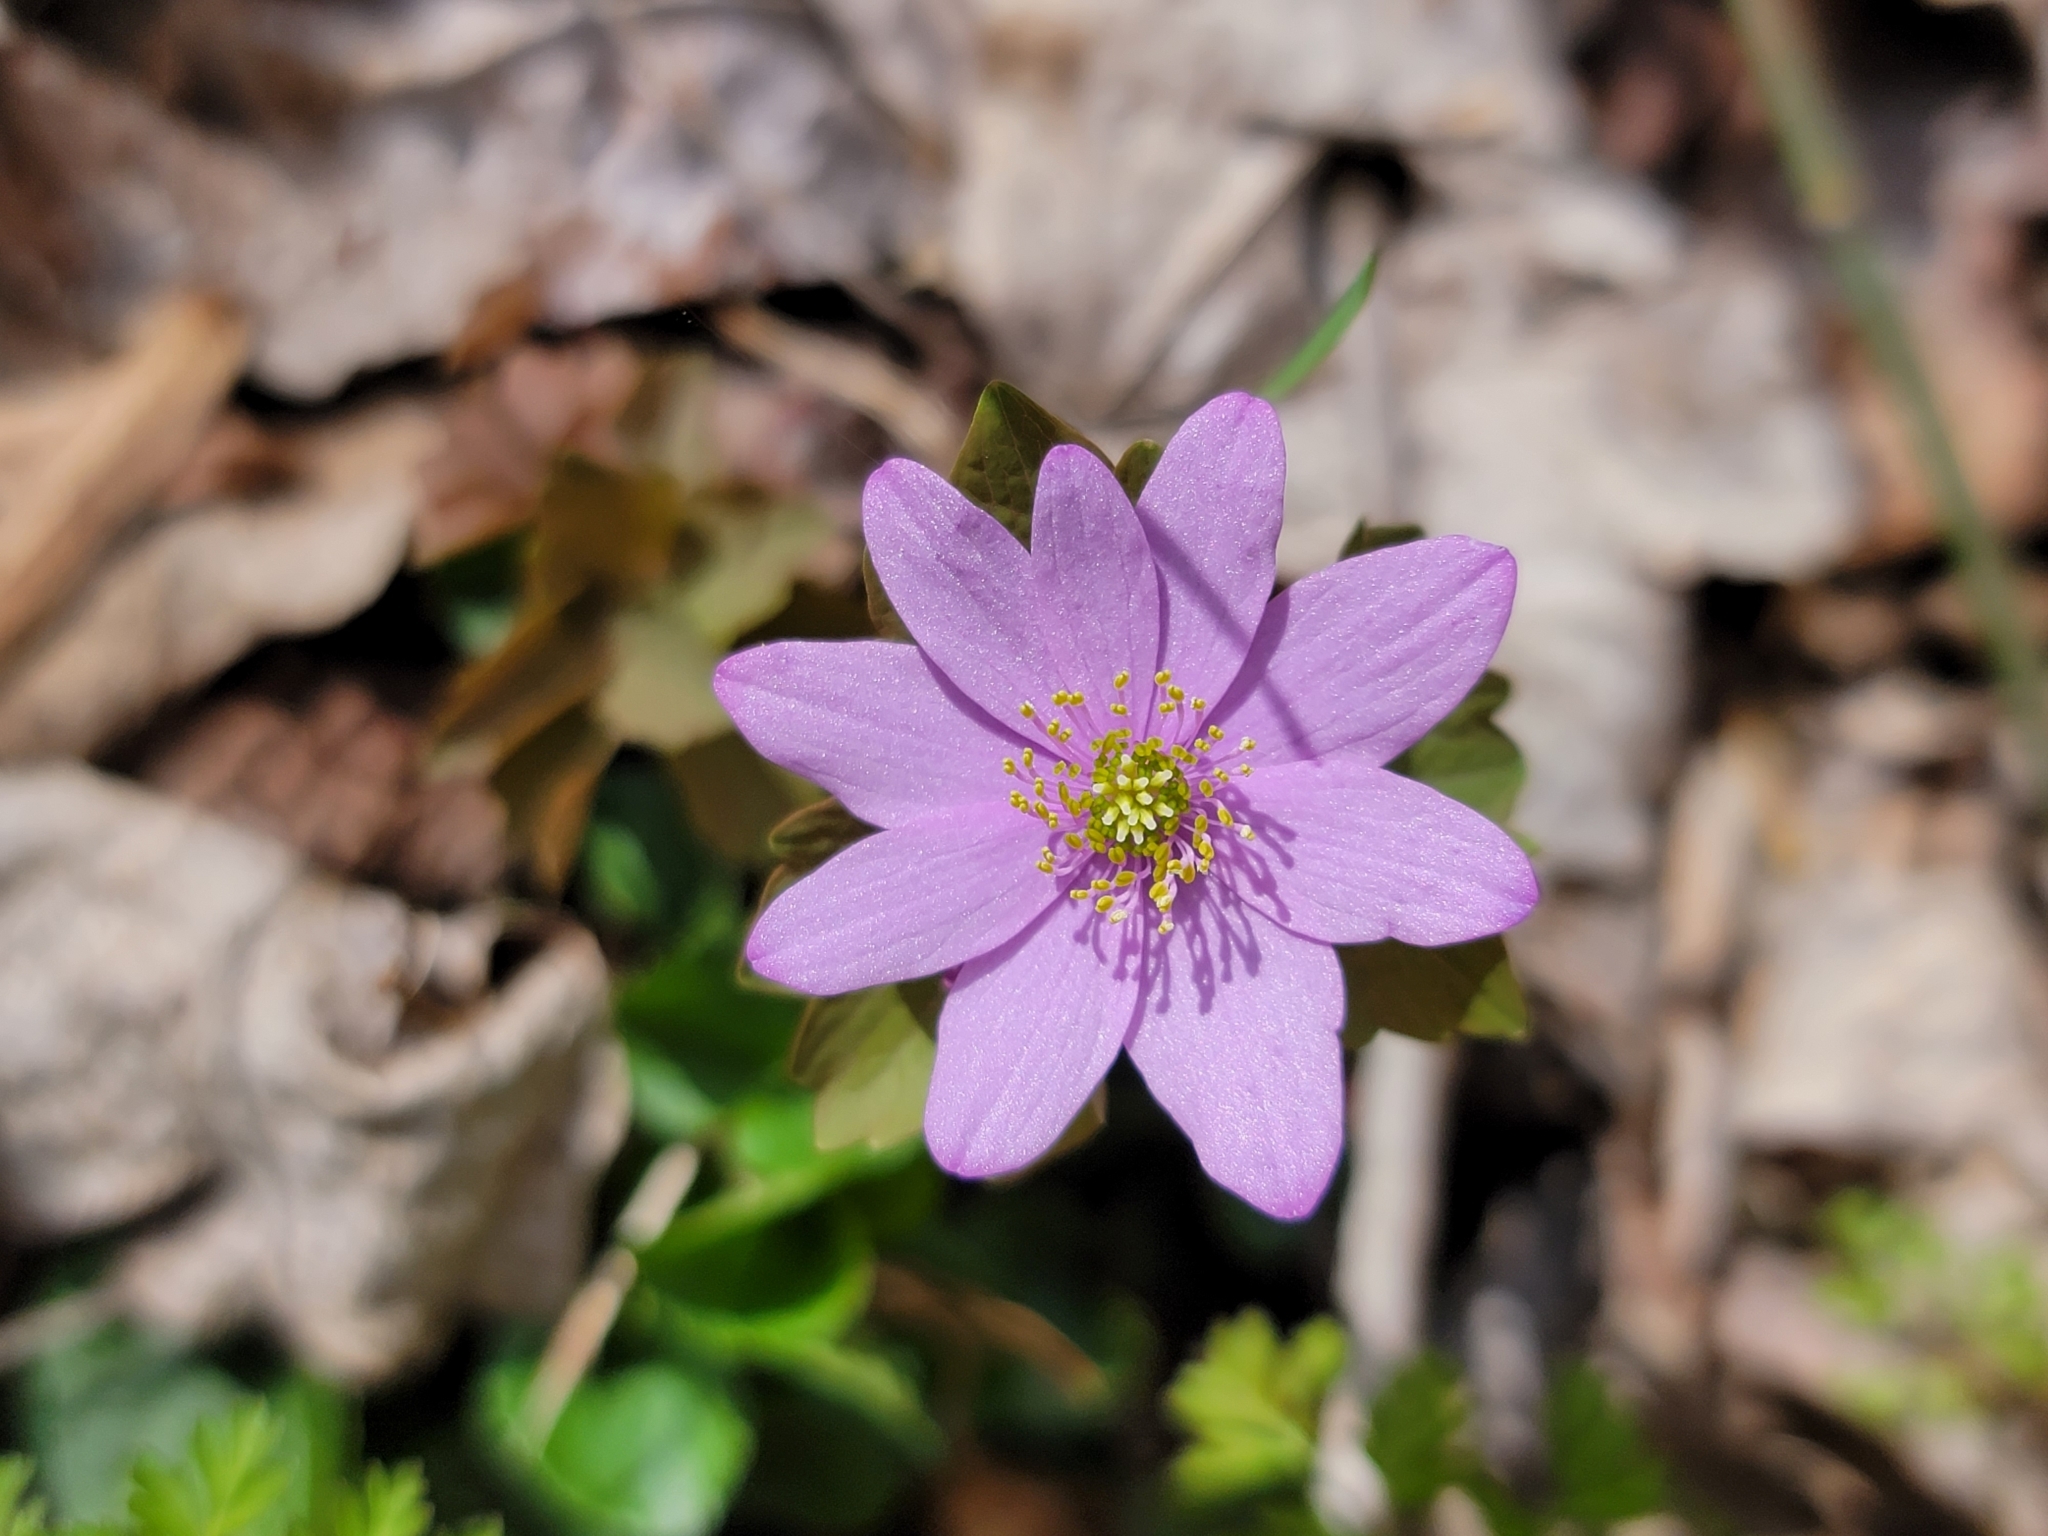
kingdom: Plantae
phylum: Tracheophyta
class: Magnoliopsida
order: Ranunculales
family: Ranunculaceae
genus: Thalictrum
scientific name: Thalictrum thalictroides
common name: Rue-anemone
